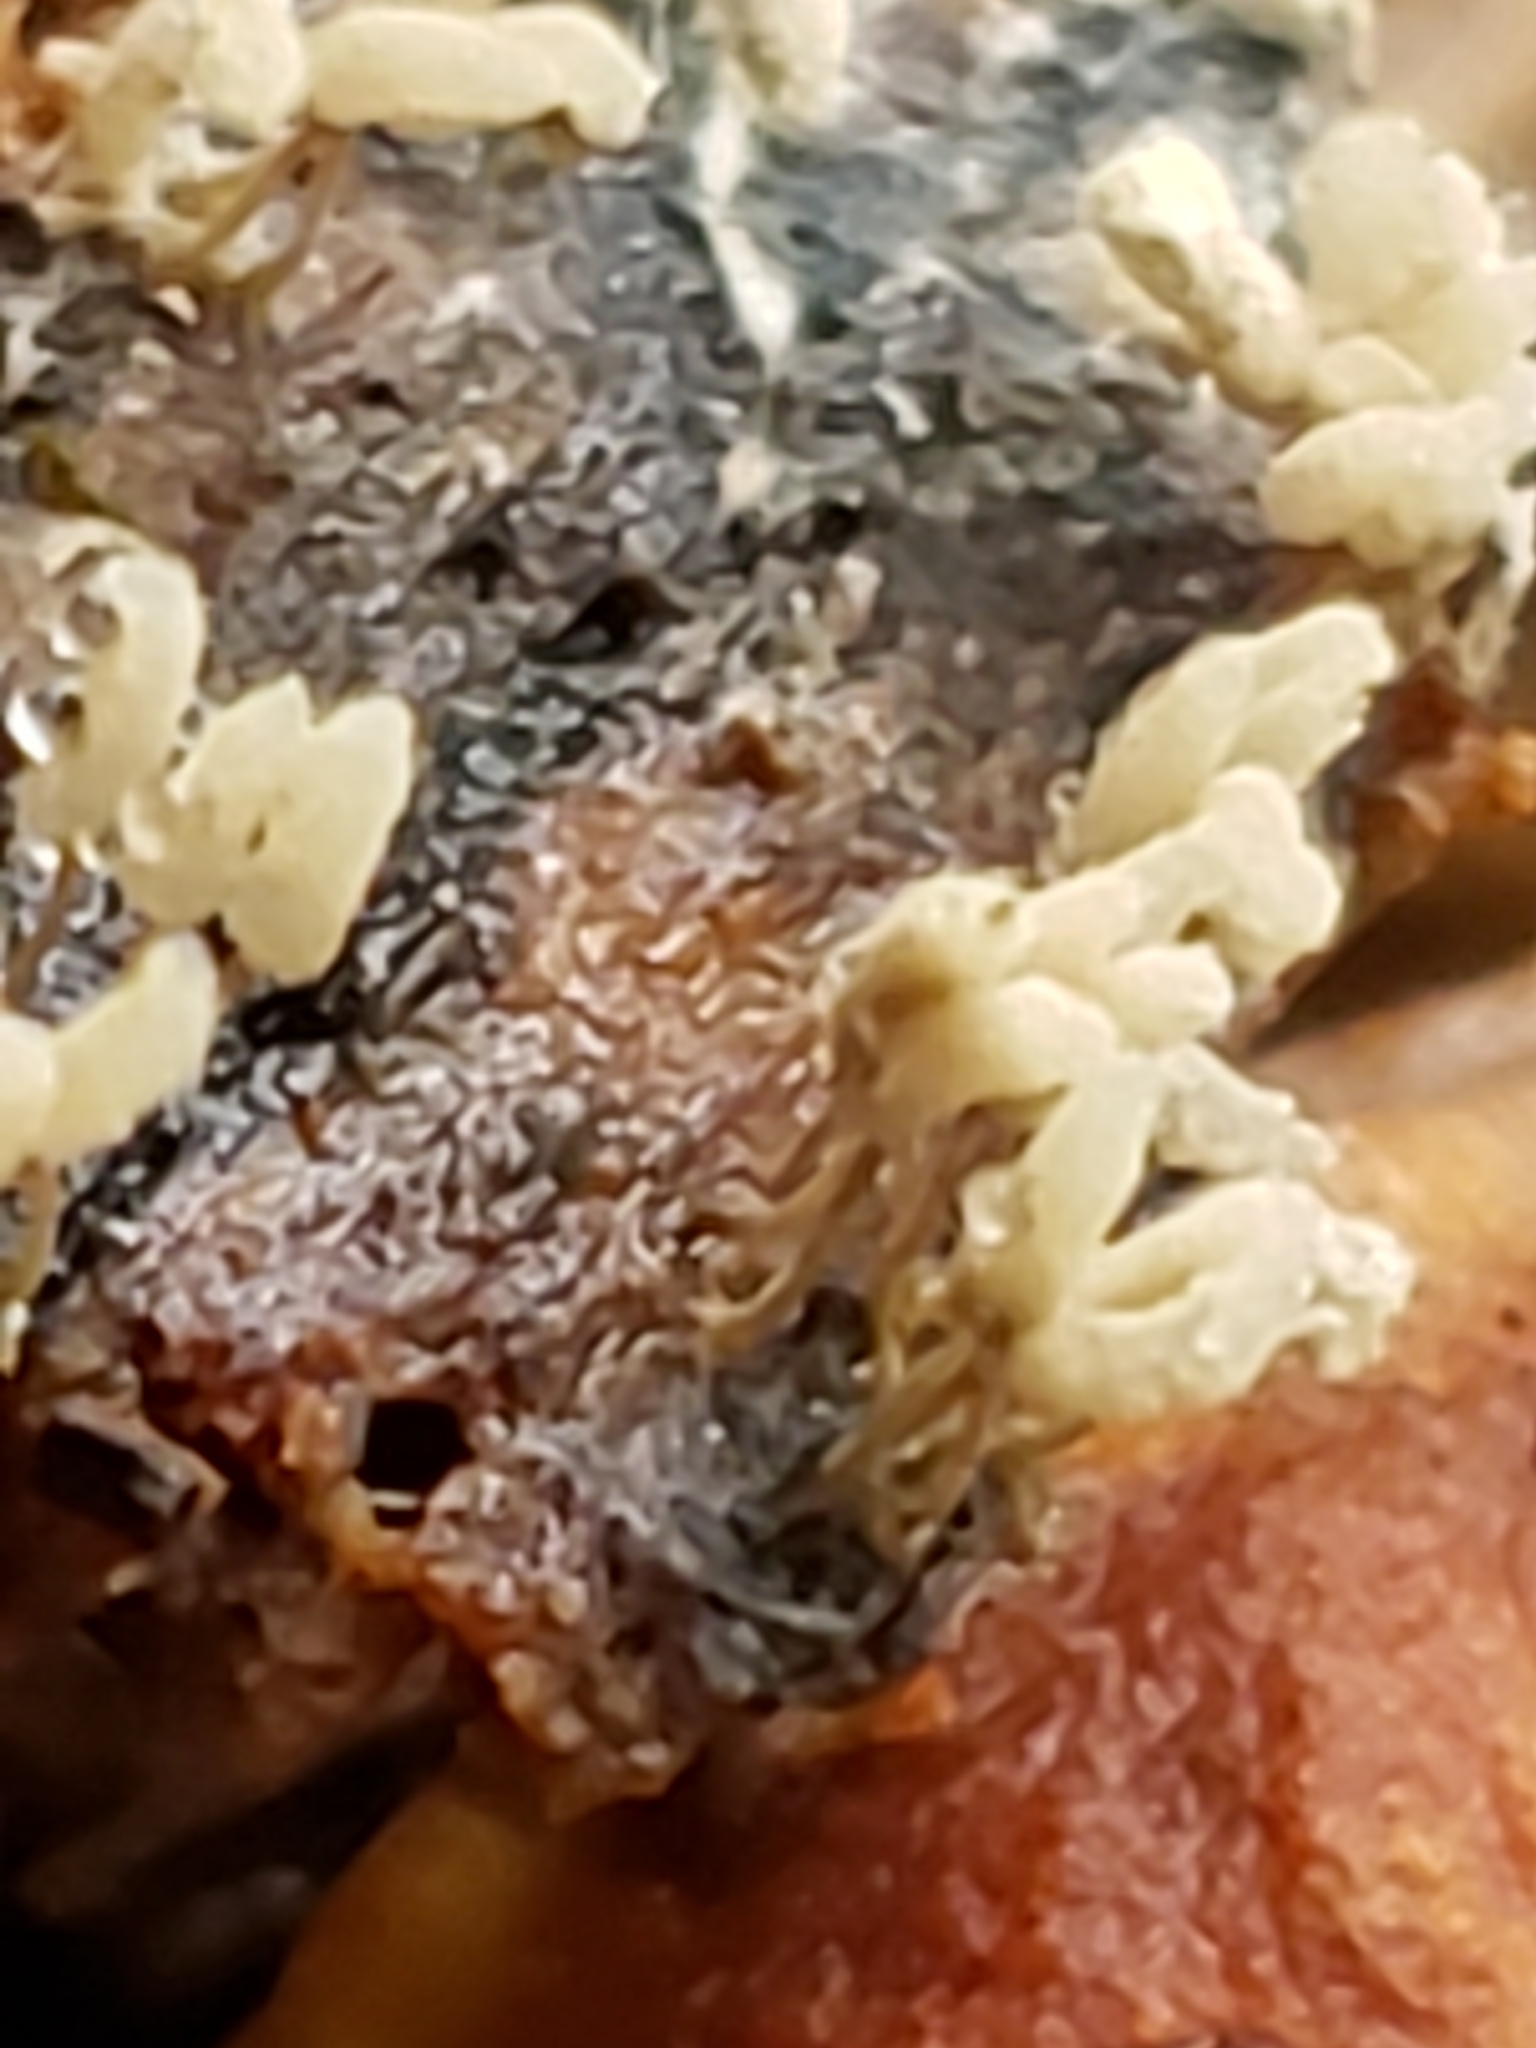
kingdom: Protozoa
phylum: Mycetozoa
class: Myxomycetes
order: Trichiales
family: Arcyriaceae
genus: Arcyria
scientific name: Arcyria cinerea
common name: White carnival candy slime mold
